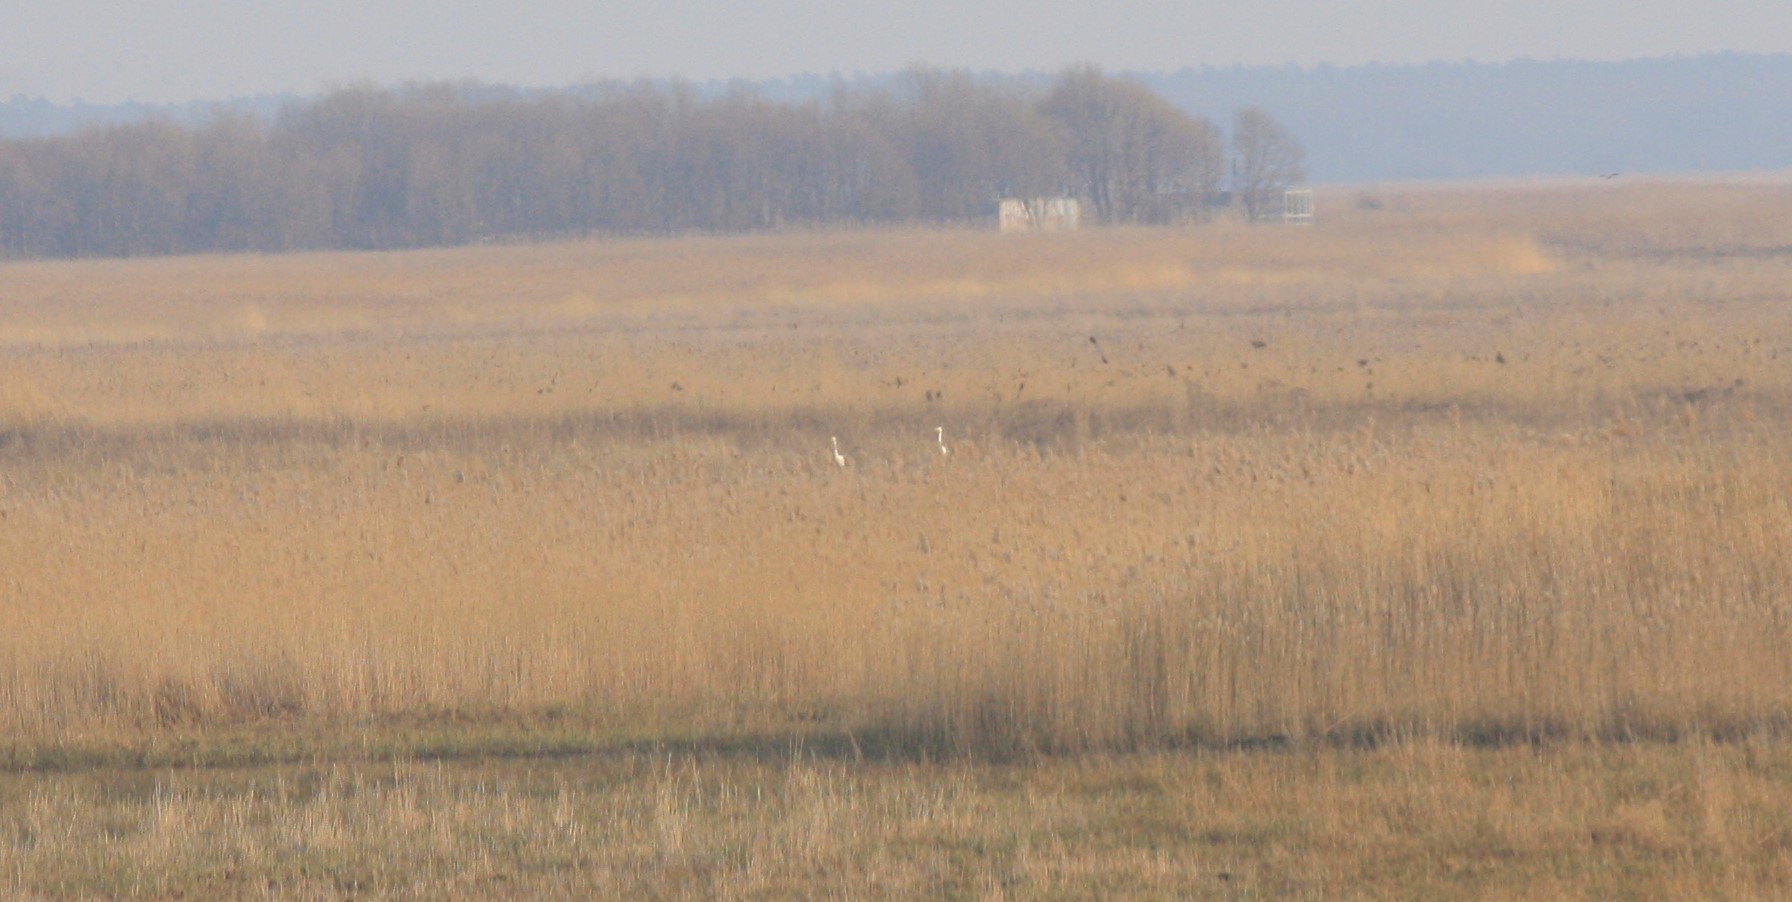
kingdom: Animalia
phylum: Chordata
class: Aves
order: Pelecaniformes
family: Ardeidae
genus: Ardea
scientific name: Ardea alba
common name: Great egret
